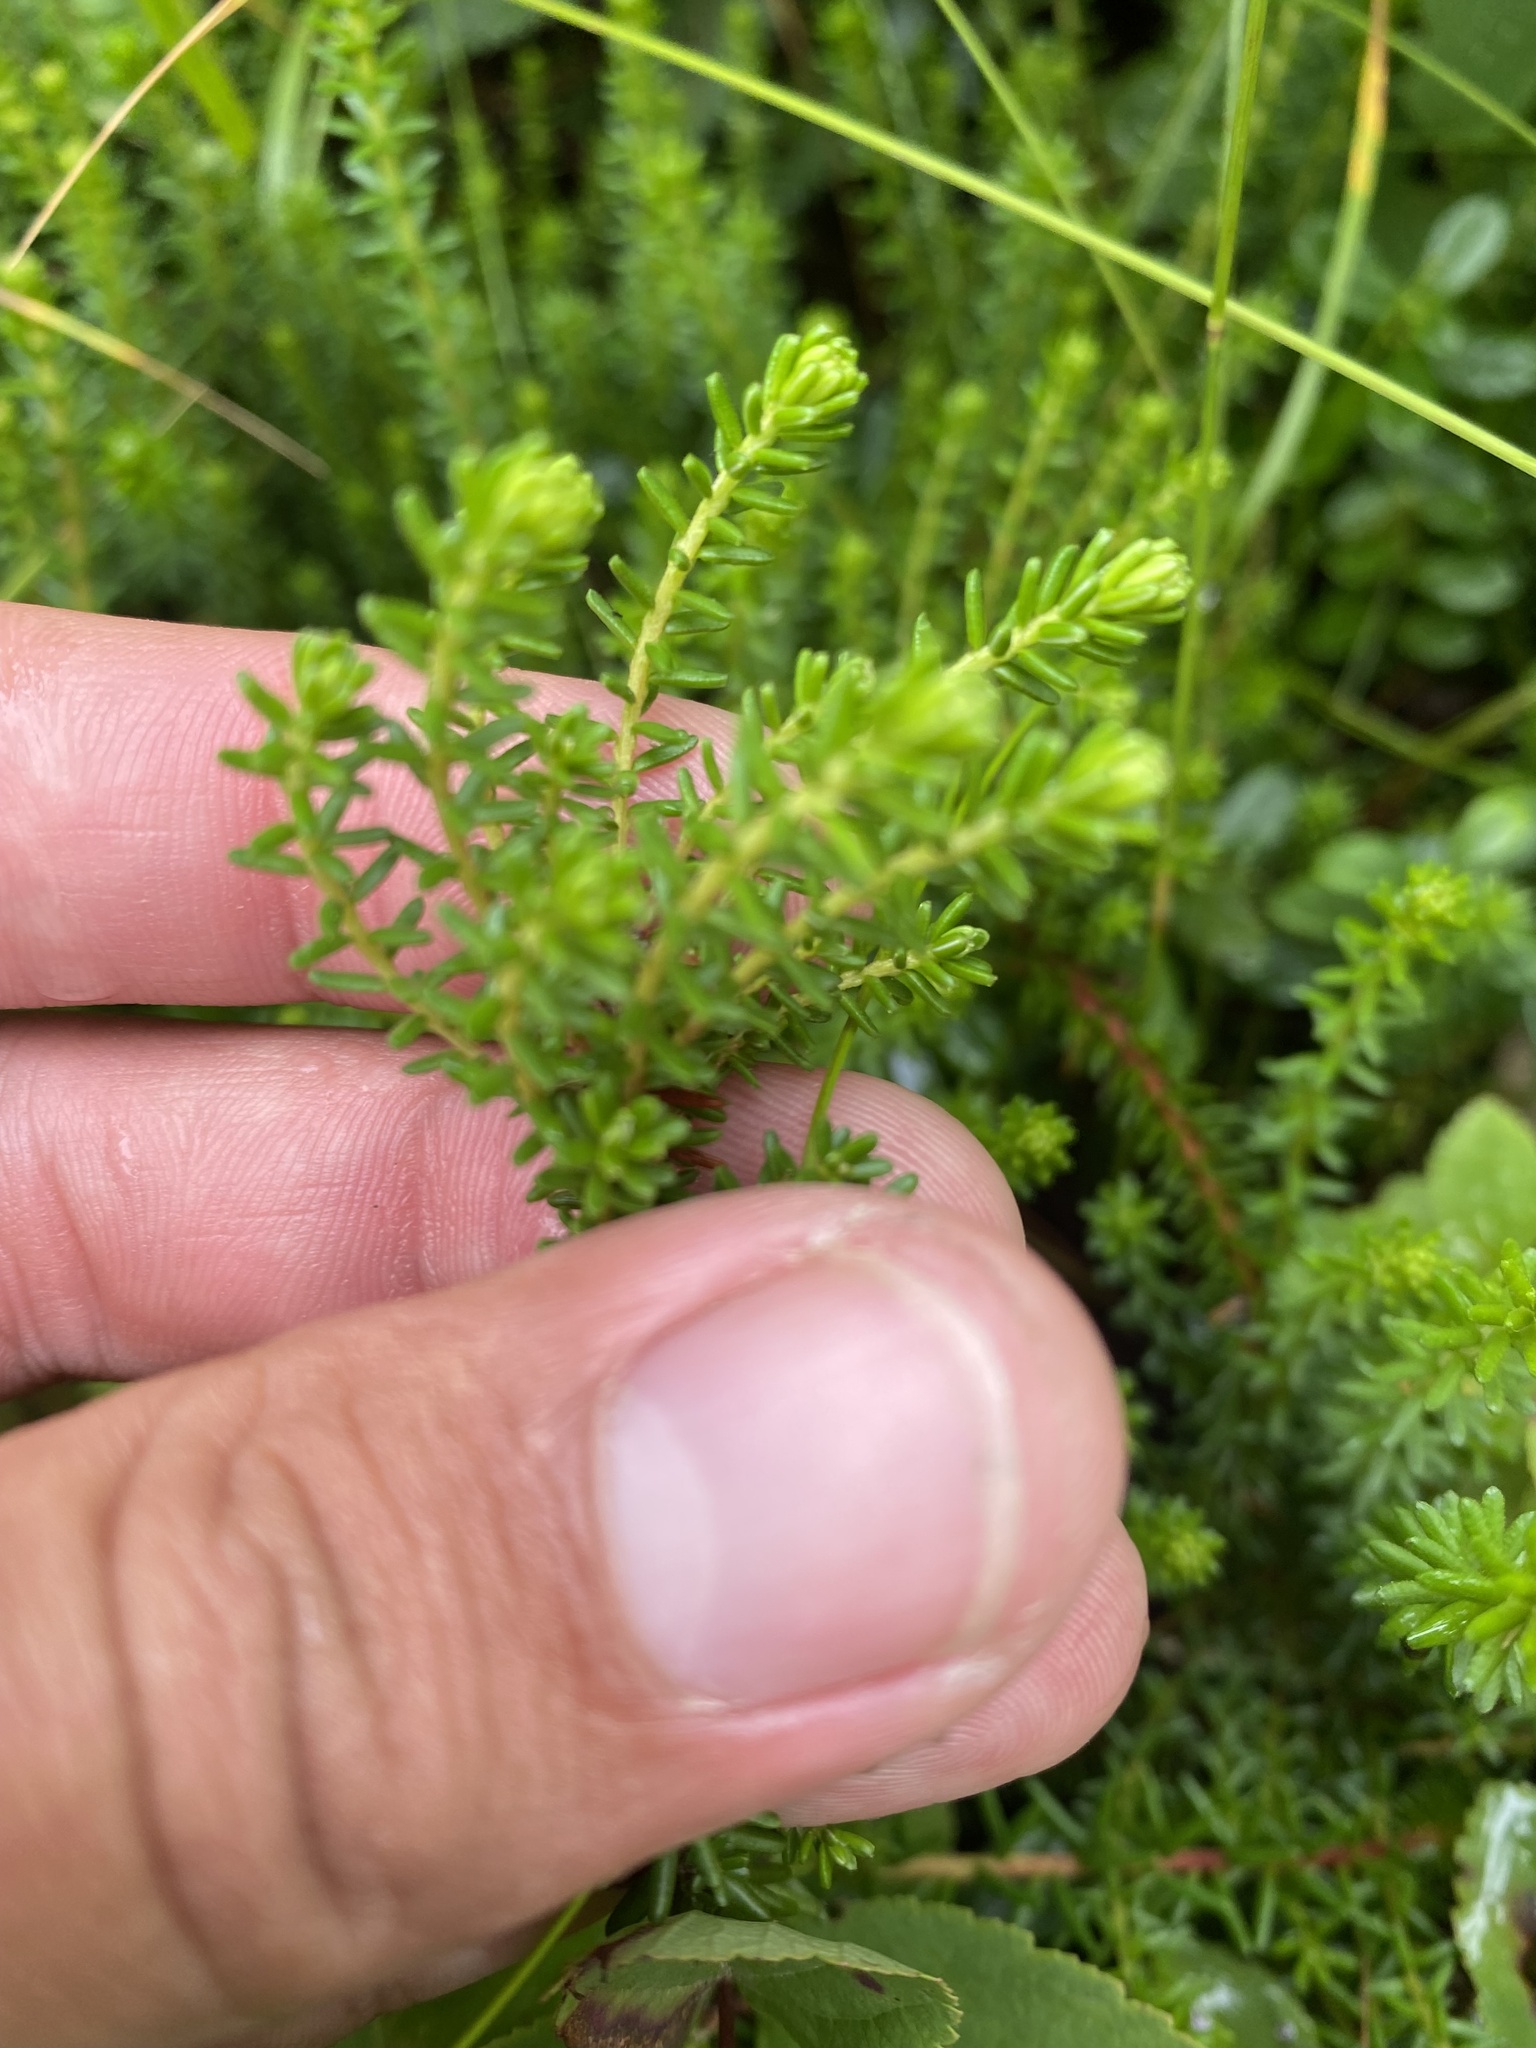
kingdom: Plantae
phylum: Tracheophyta
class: Magnoliopsida
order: Ericales
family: Ericaceae
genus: Empetrum
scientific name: Empetrum nigrum
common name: Black crowberry
